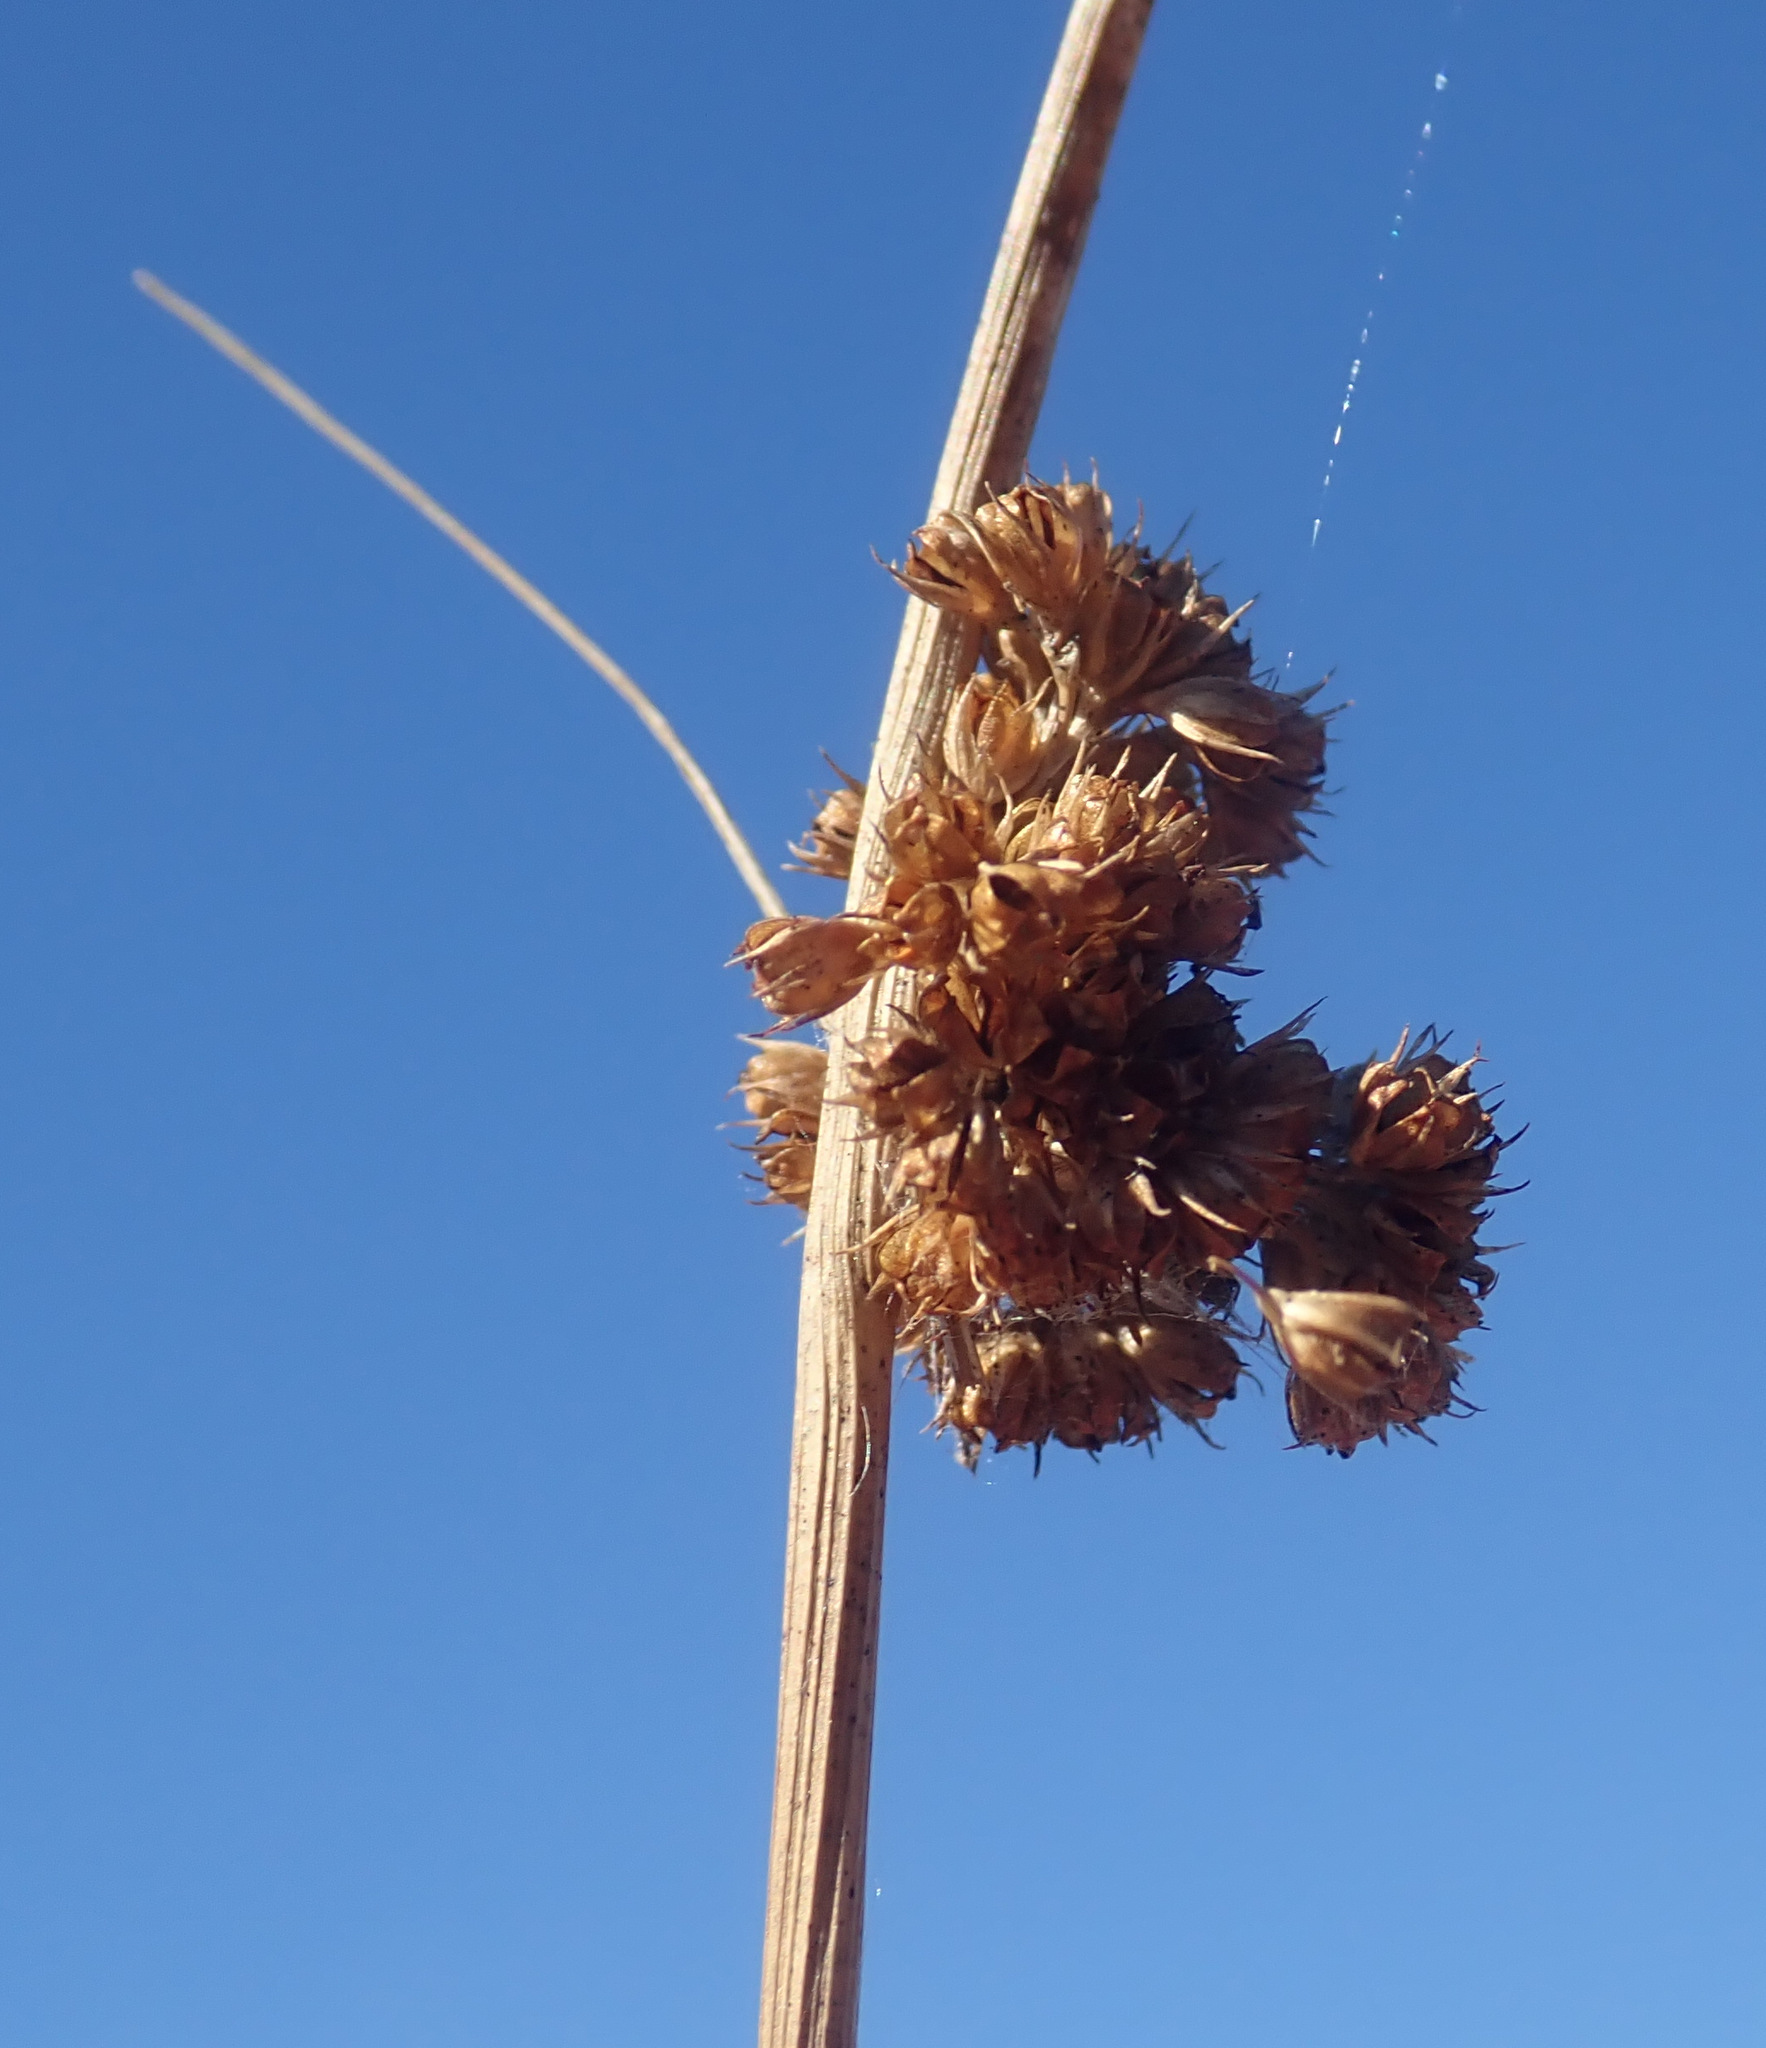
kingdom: Plantae
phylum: Tracheophyta
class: Liliopsida
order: Poales
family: Juncaceae
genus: Juncus
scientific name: Juncus conglomeratus
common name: Compact rush
